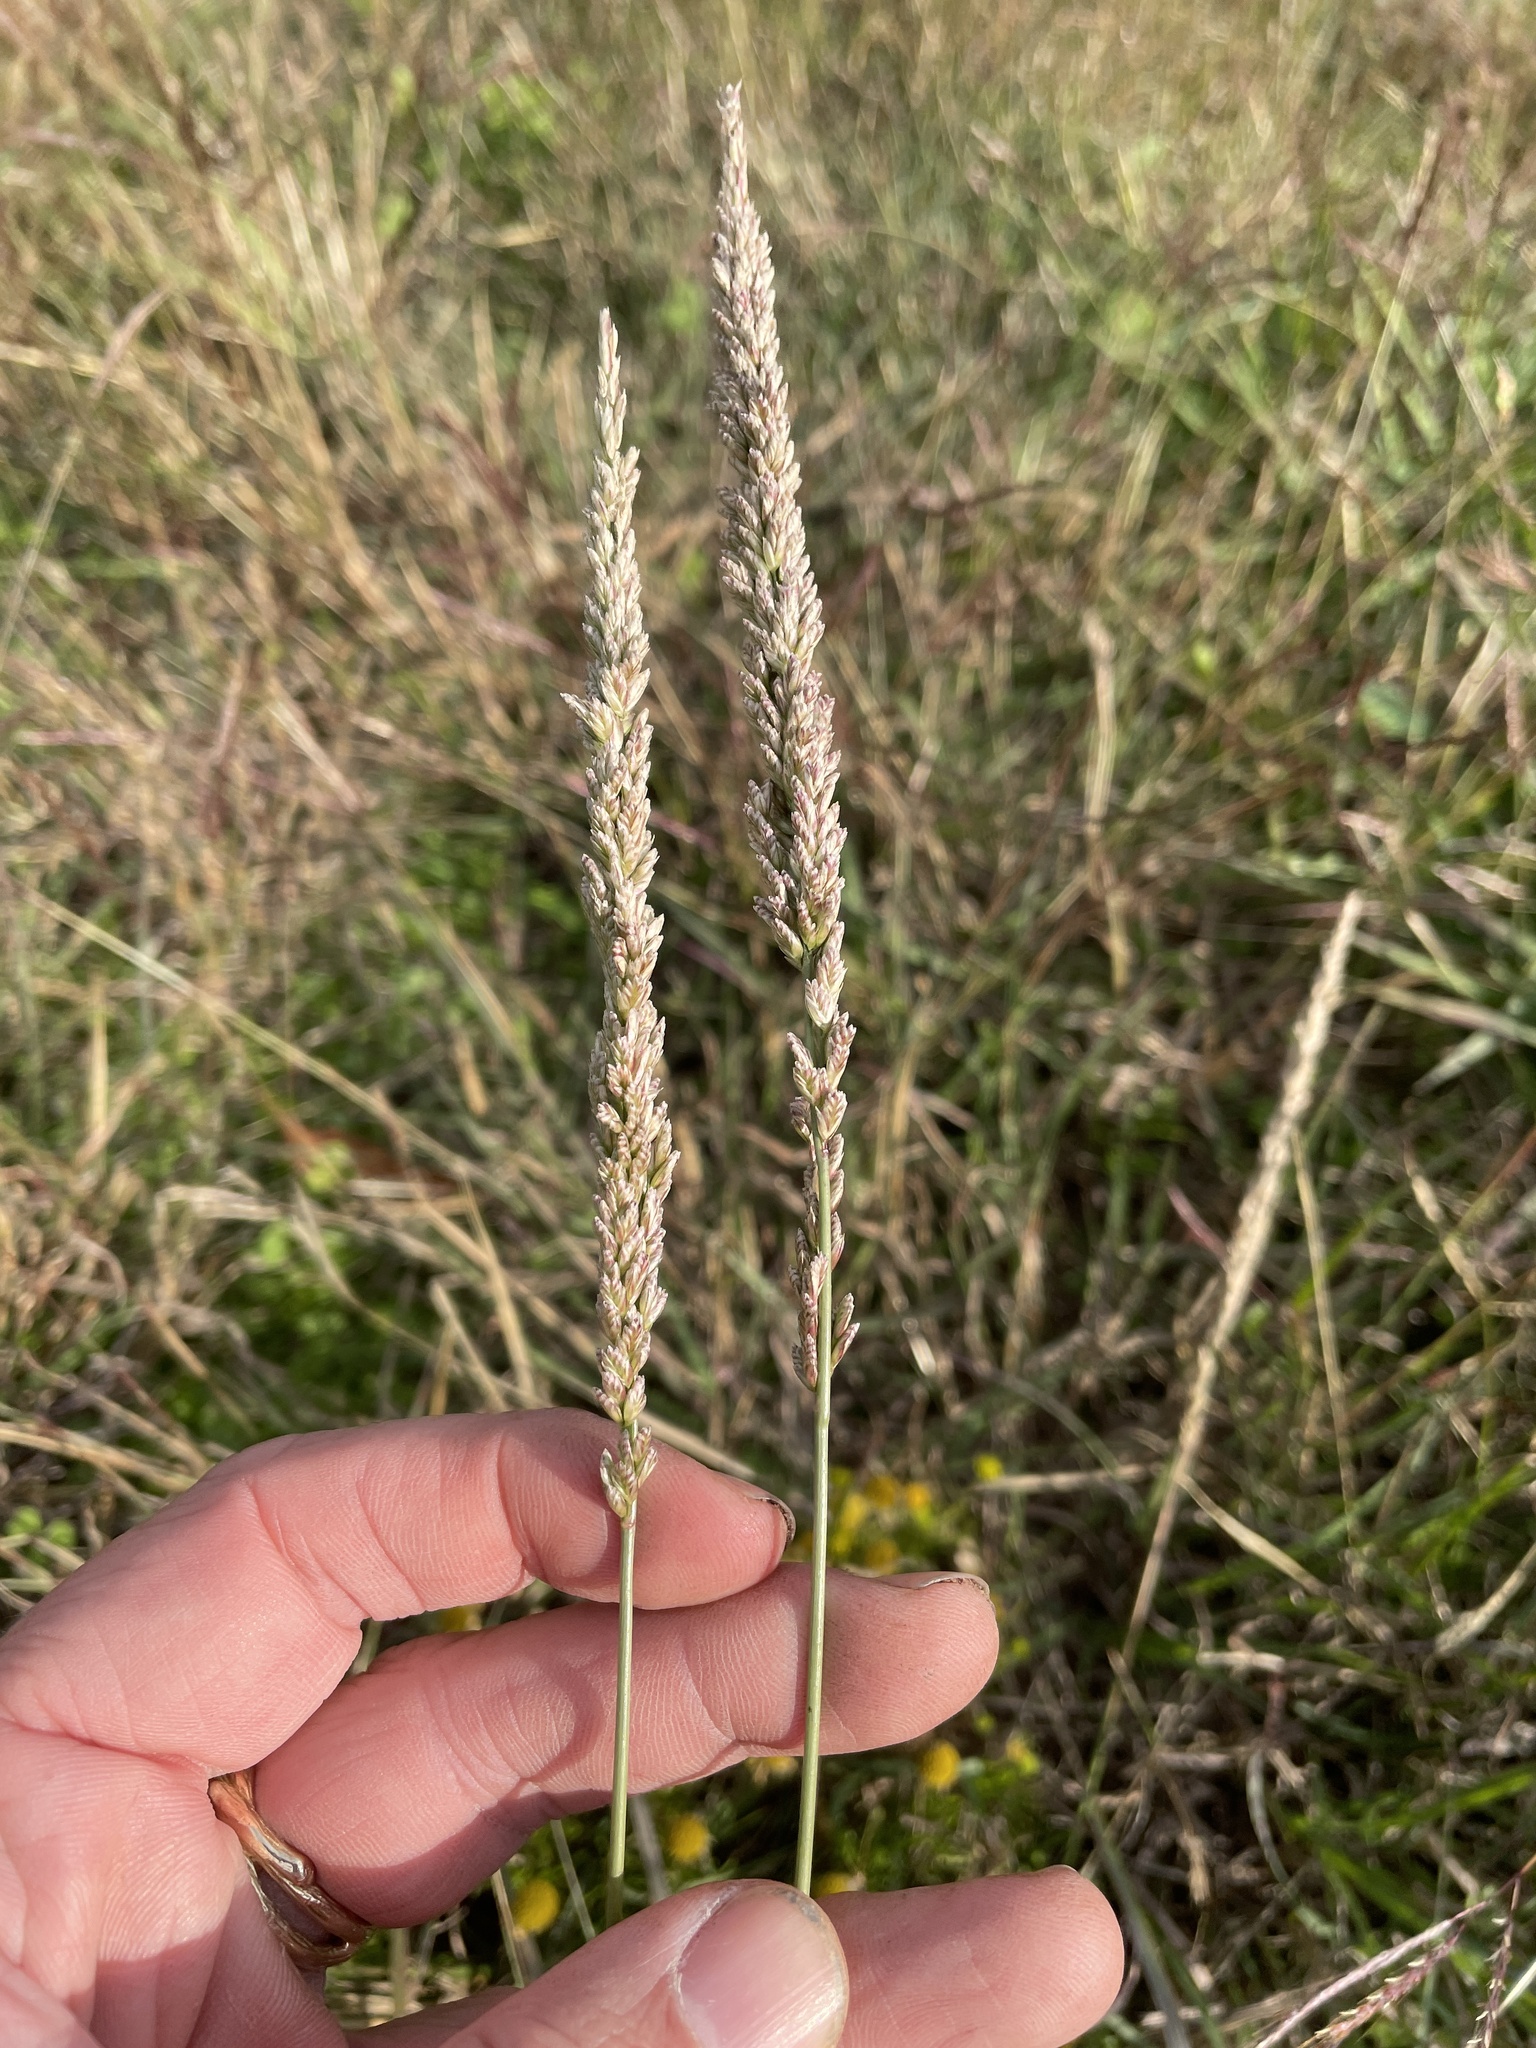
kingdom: Plantae
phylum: Tracheophyta
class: Liliopsida
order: Poales
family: Poaceae
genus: Tridens
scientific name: Tridens albescens
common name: White tridens
